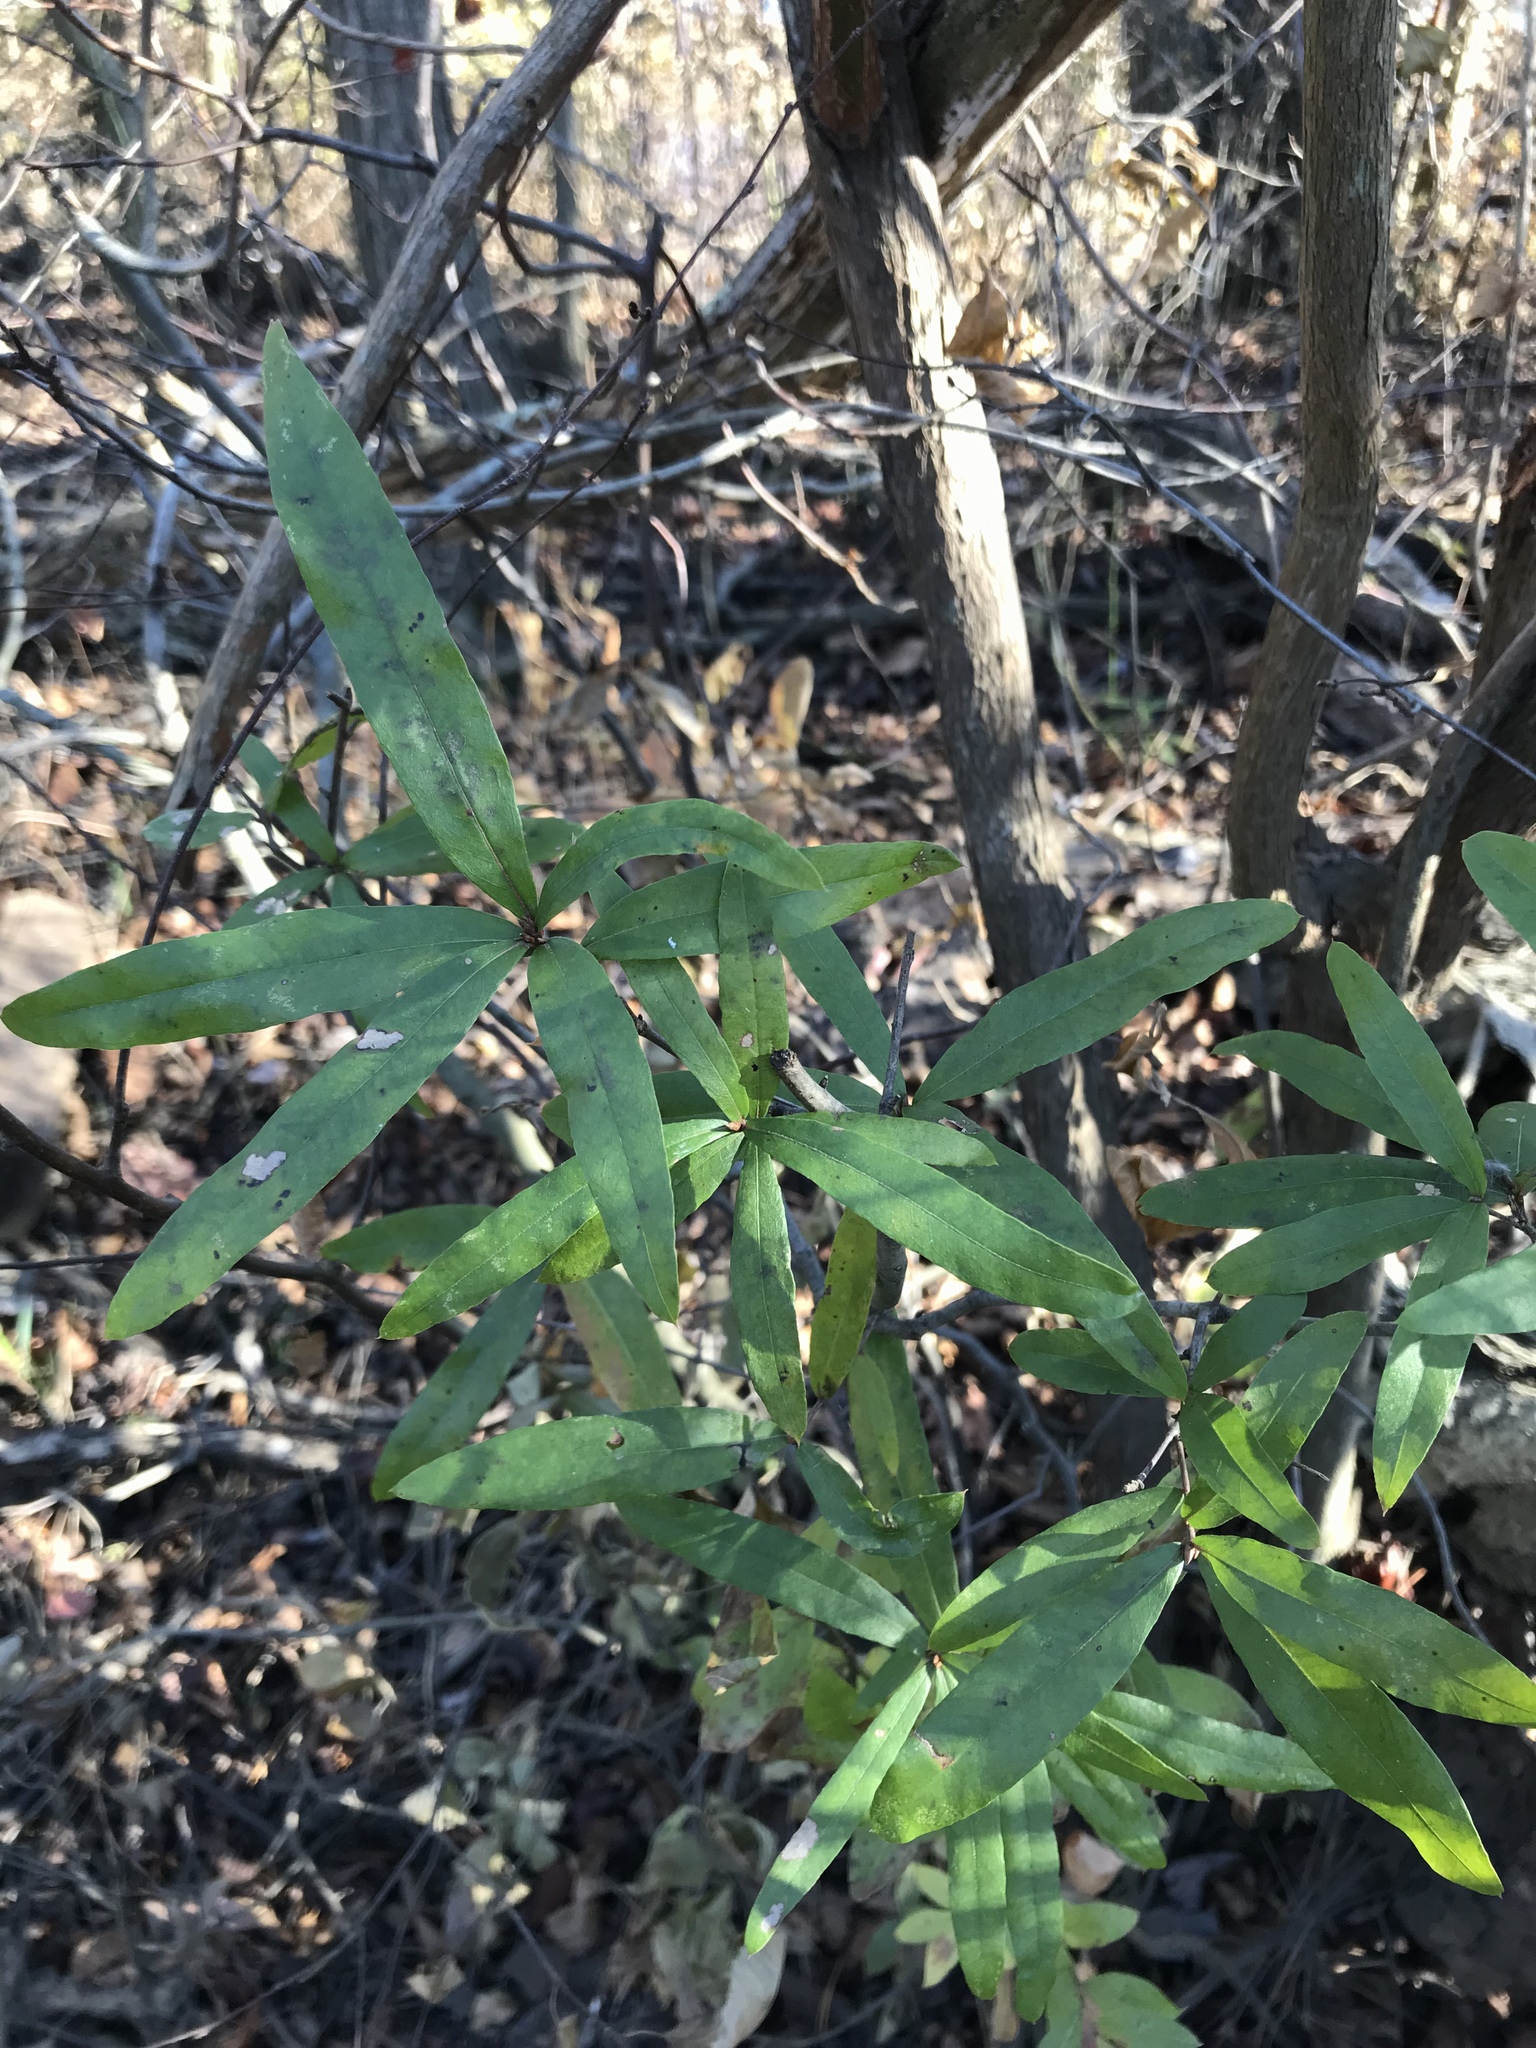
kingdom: Plantae
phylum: Tracheophyta
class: Magnoliopsida
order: Fagales
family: Fagaceae
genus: Quercus
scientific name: Quercus phellos
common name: Willow oak
